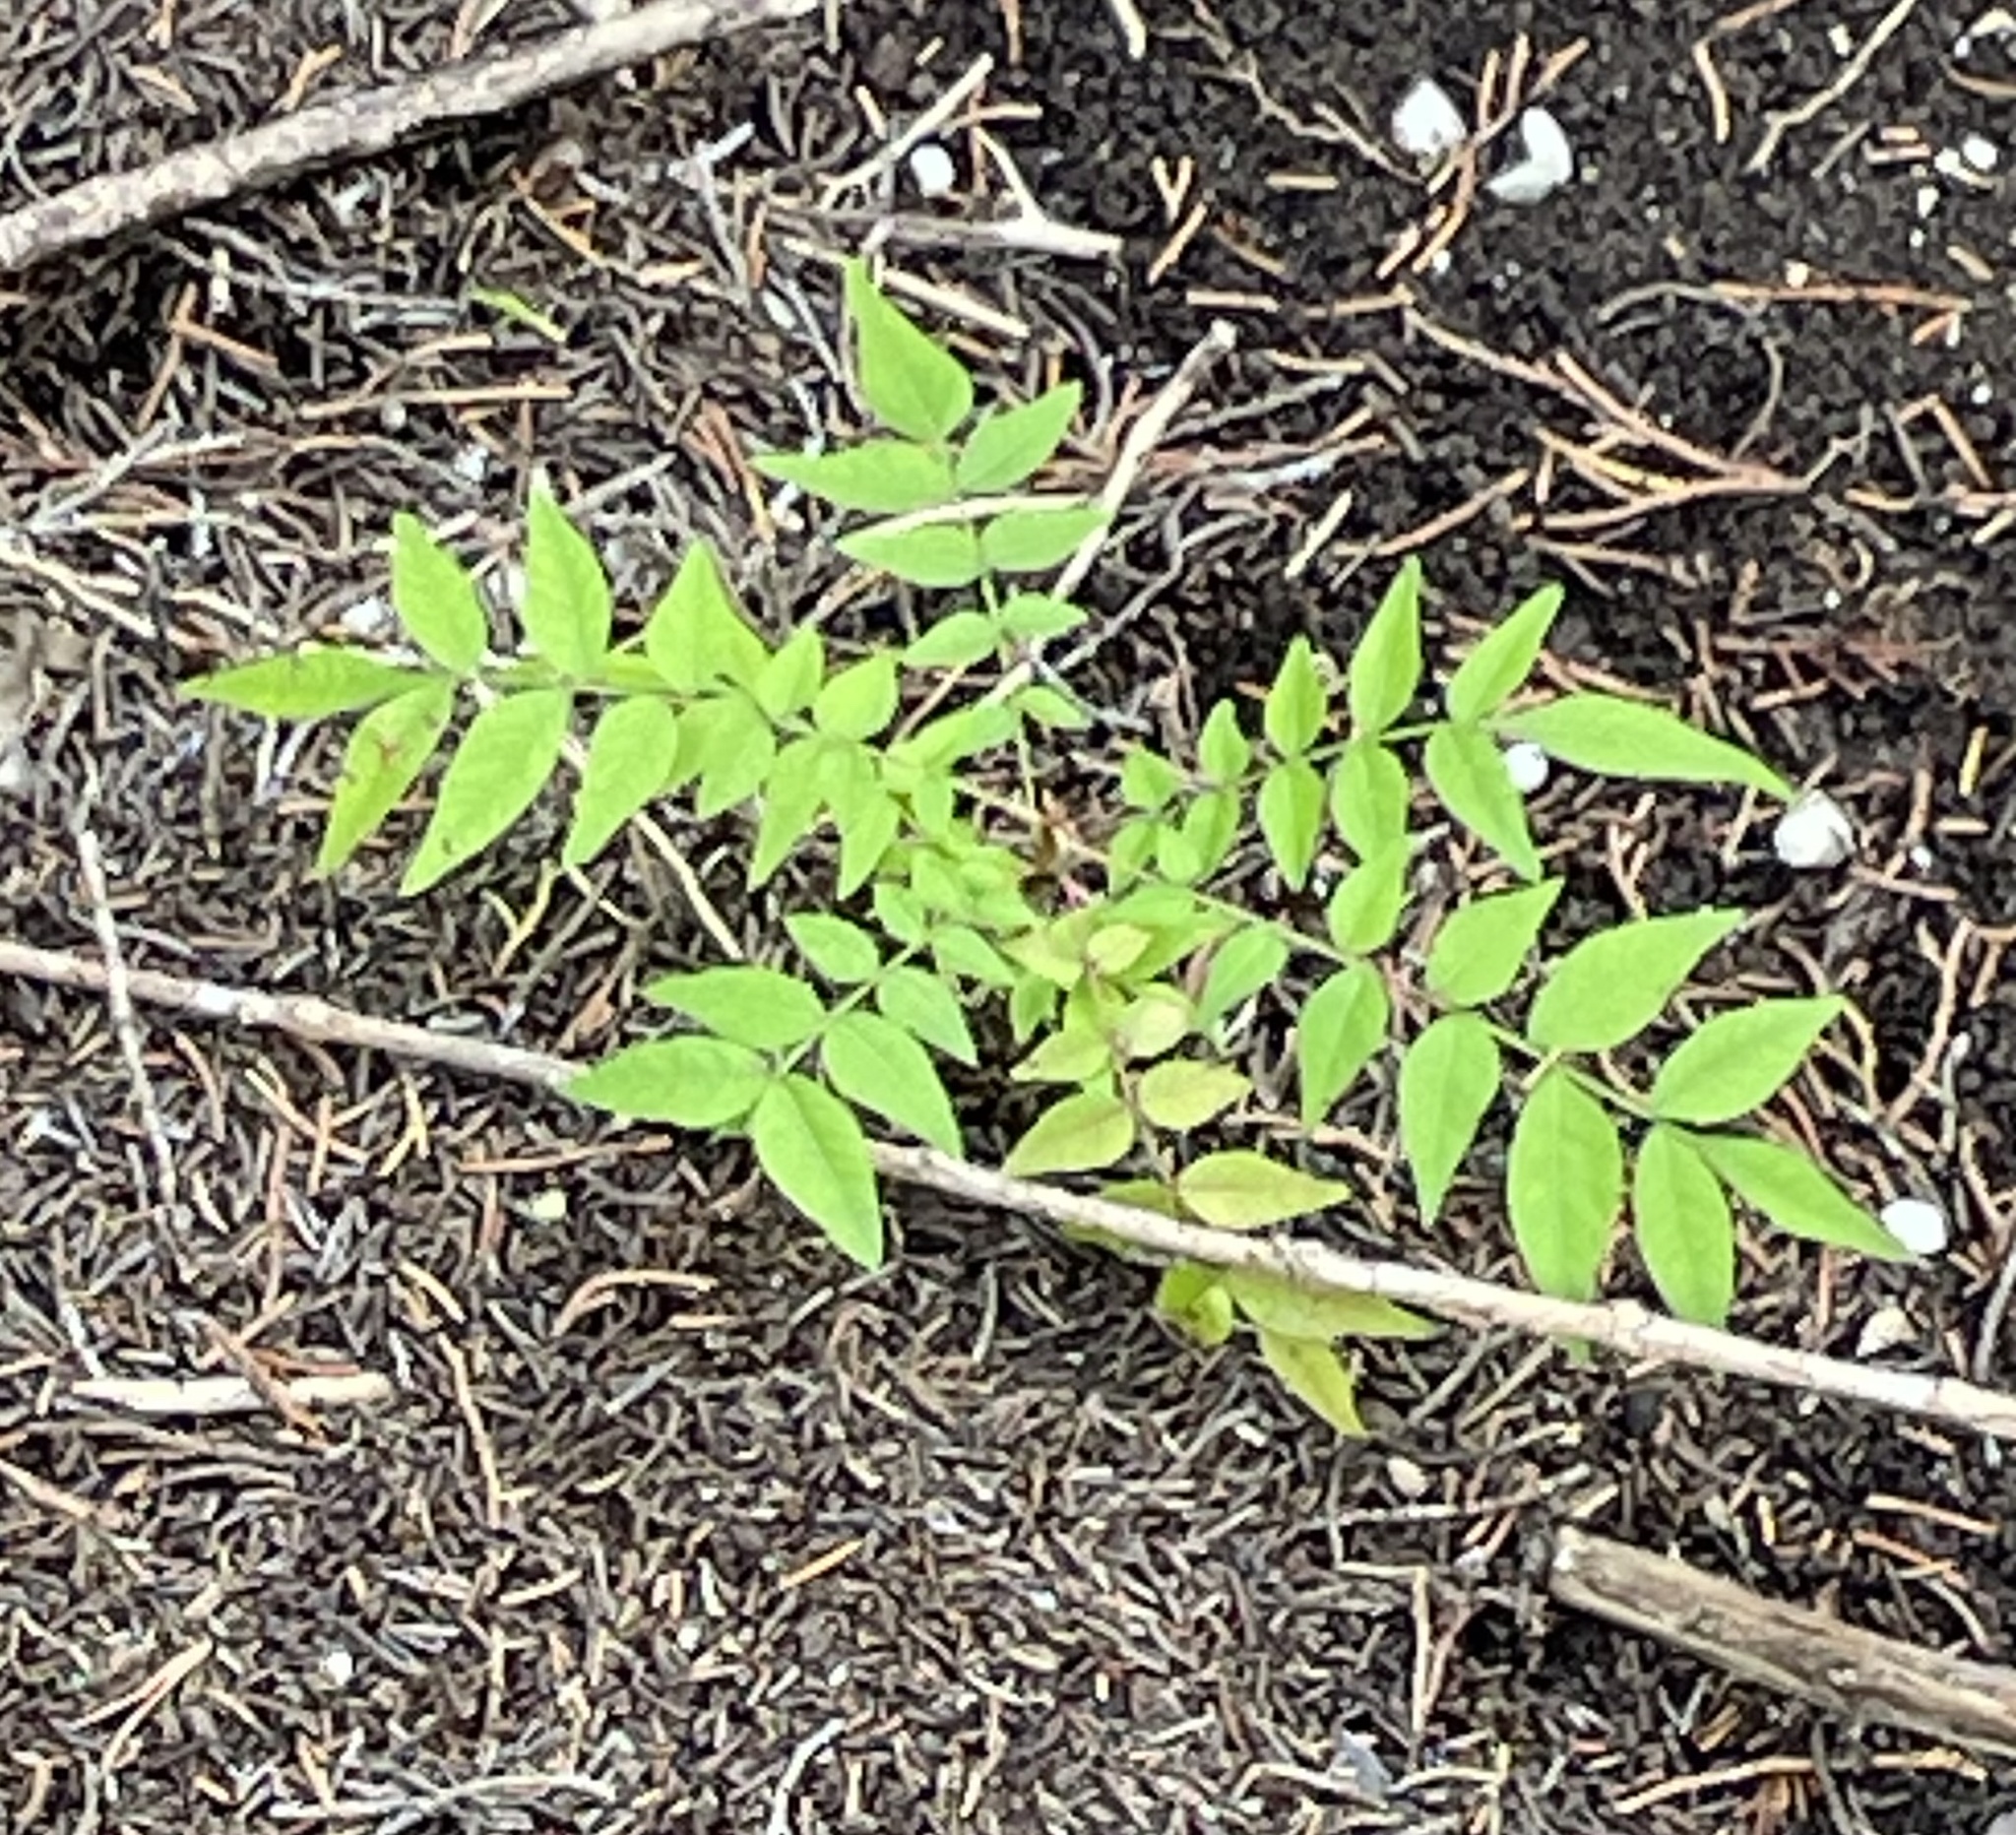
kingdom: Plantae
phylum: Tracheophyta
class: Magnoliopsida
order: Sapindales
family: Anacardiaceae
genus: Pistacia
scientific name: Pistacia chinensis
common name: Chinese pistache
